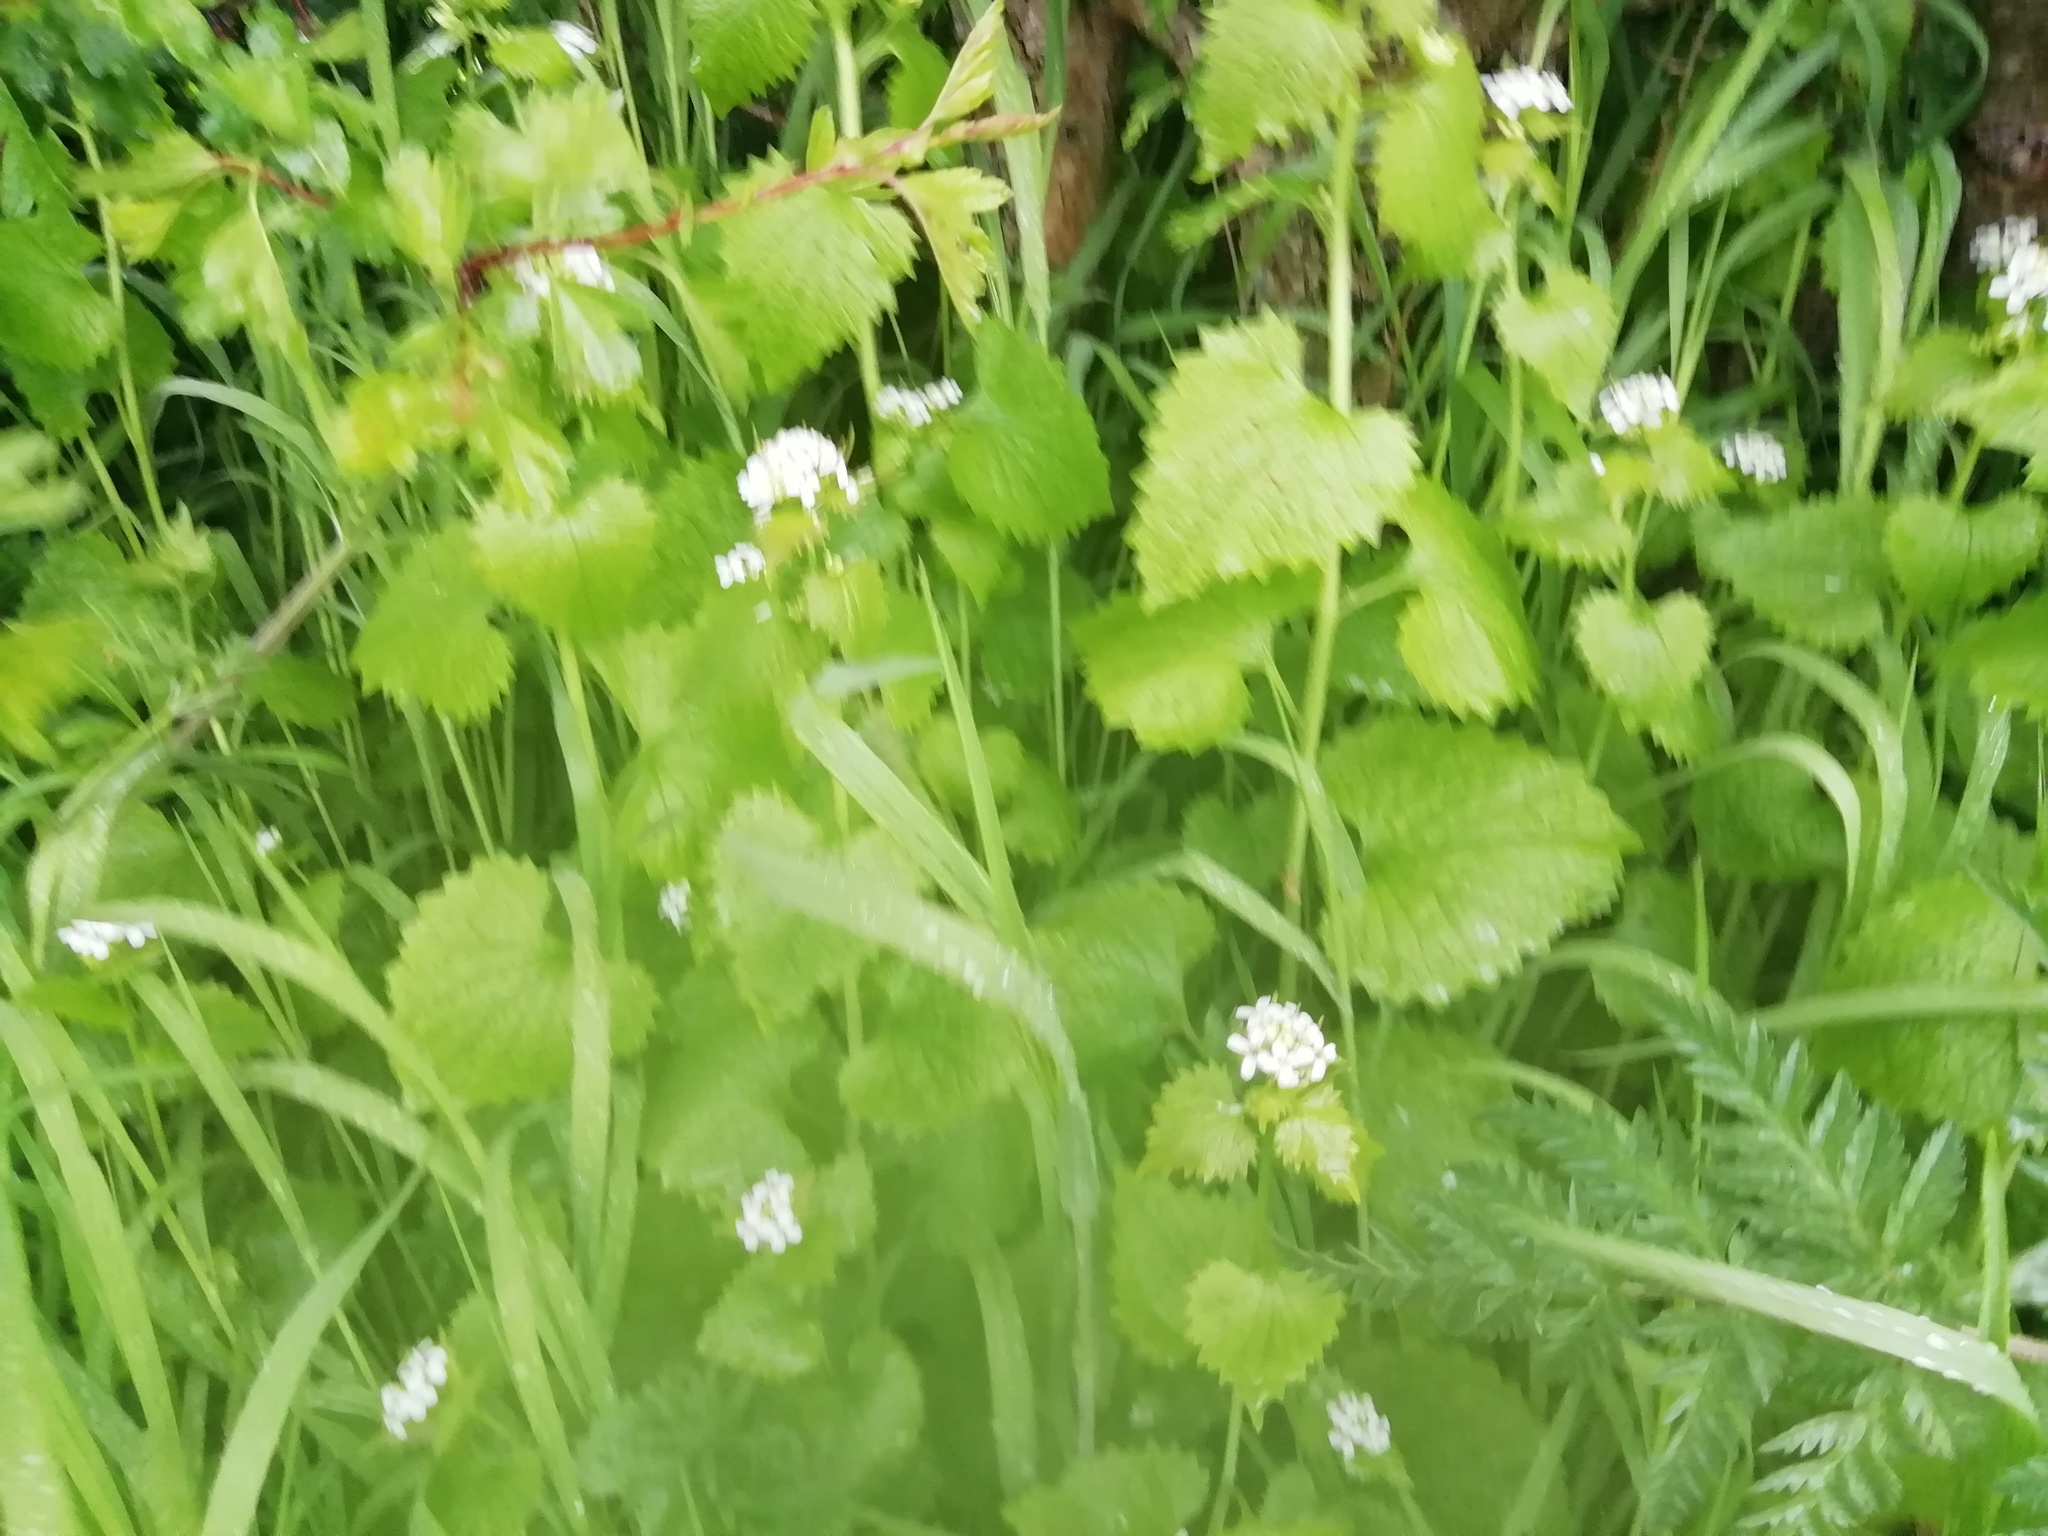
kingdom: Plantae
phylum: Tracheophyta
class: Magnoliopsida
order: Brassicales
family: Brassicaceae
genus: Alliaria
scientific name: Alliaria petiolata
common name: Garlic mustard
